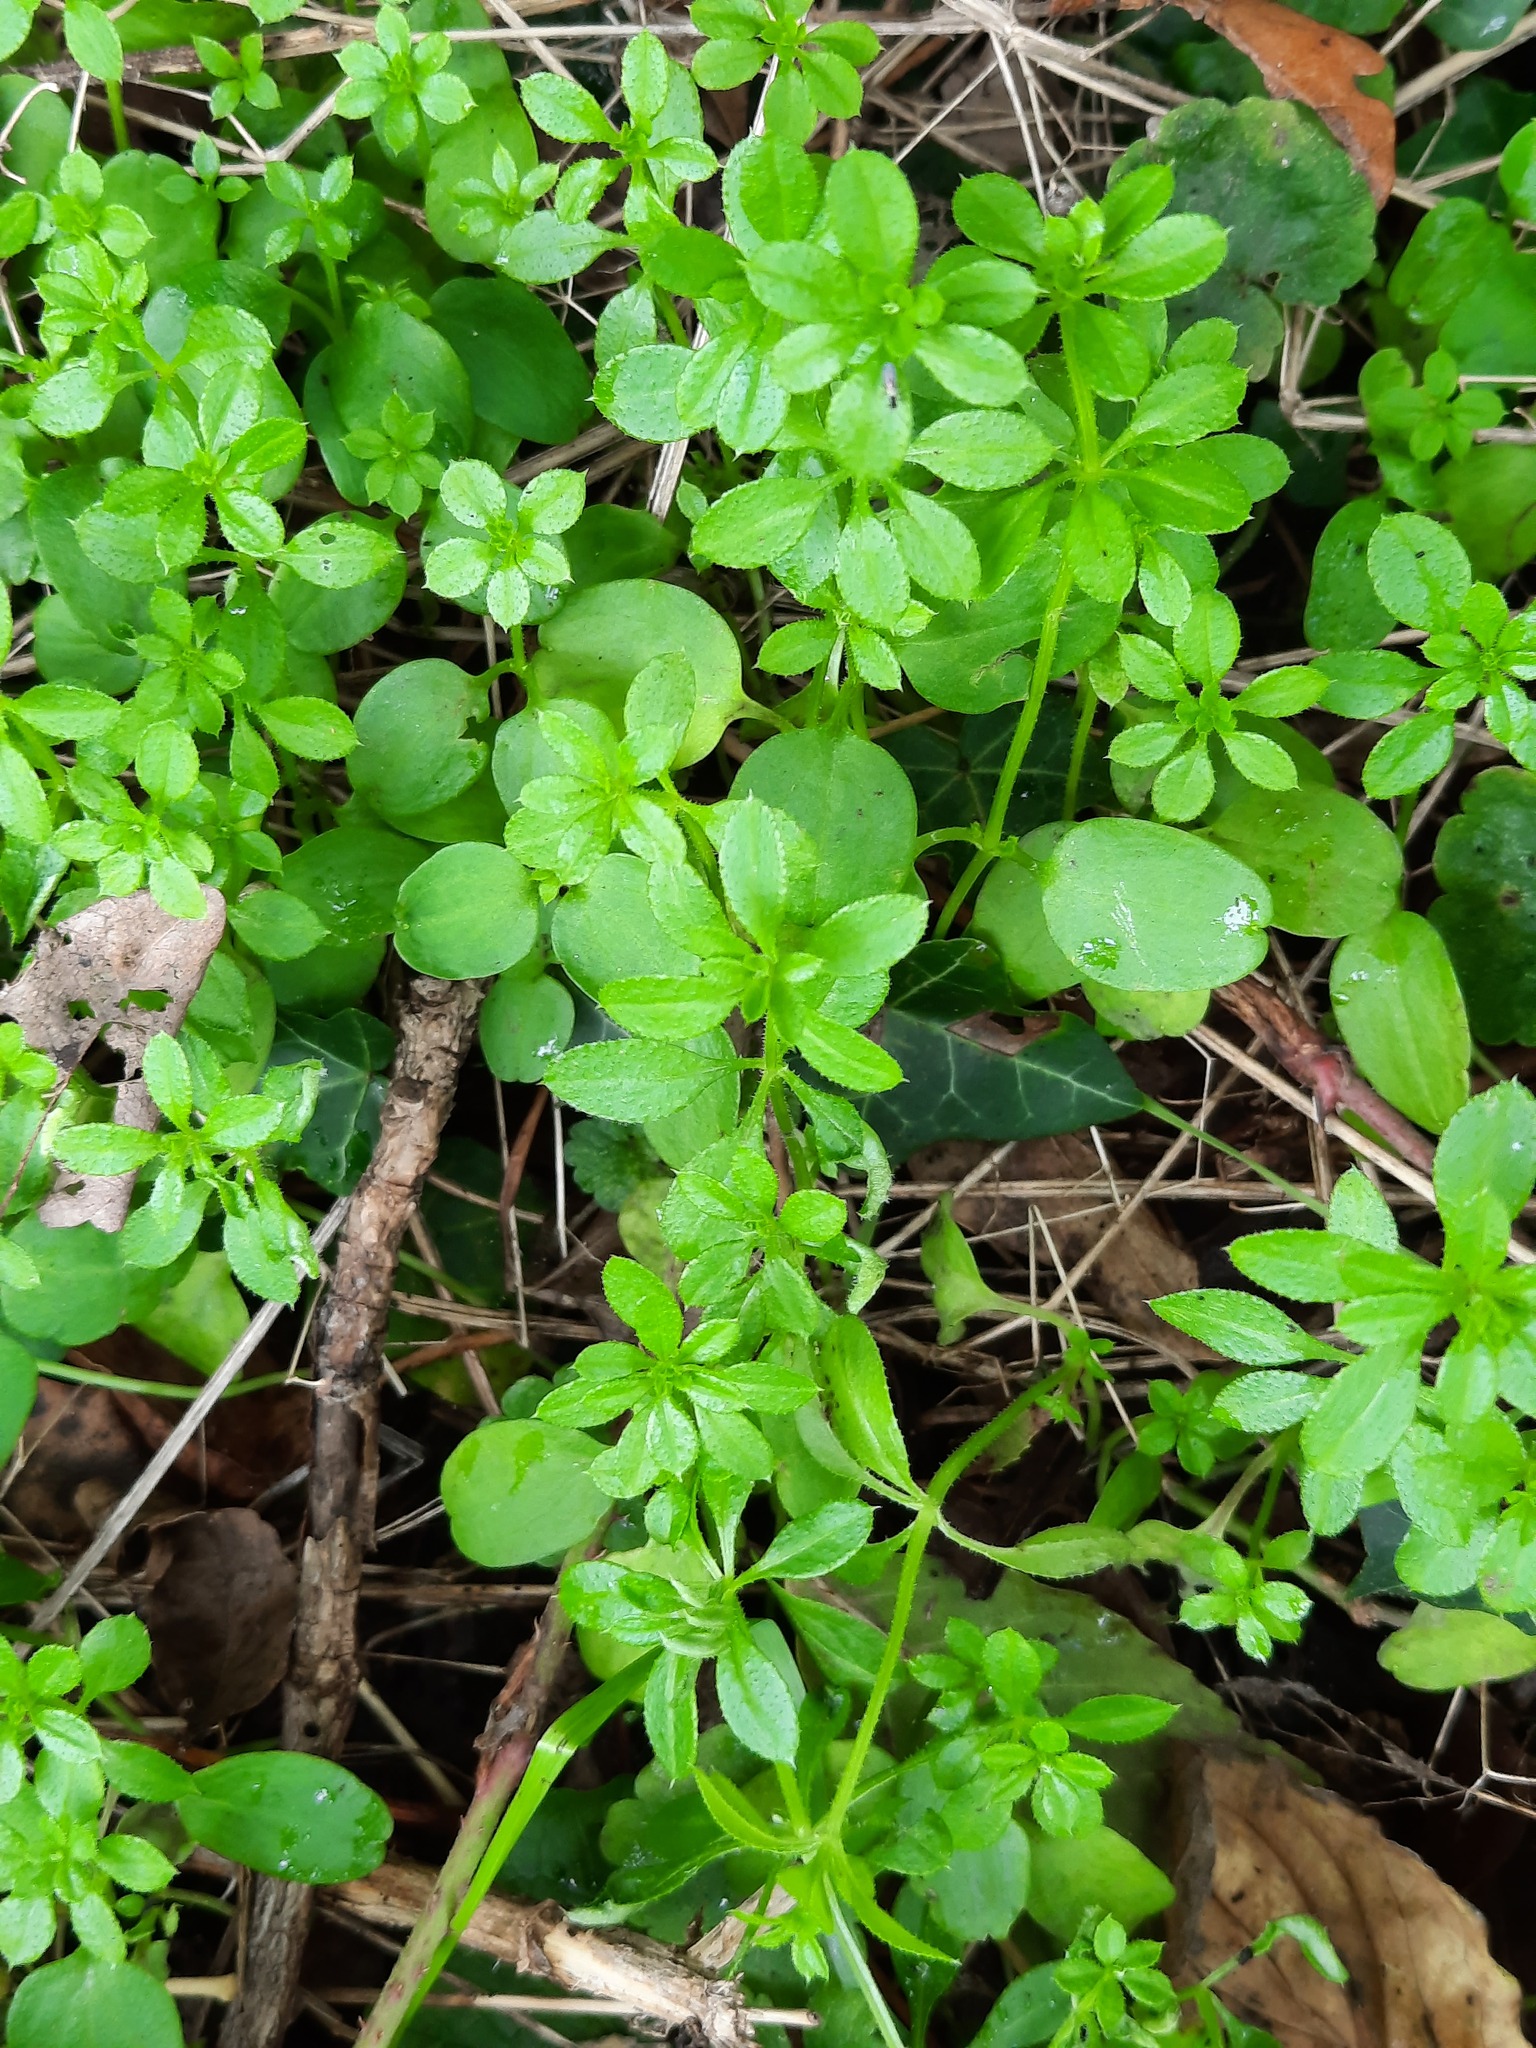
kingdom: Plantae
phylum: Tracheophyta
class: Magnoliopsida
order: Gentianales
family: Rubiaceae
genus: Galium
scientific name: Galium aparine
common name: Cleavers
